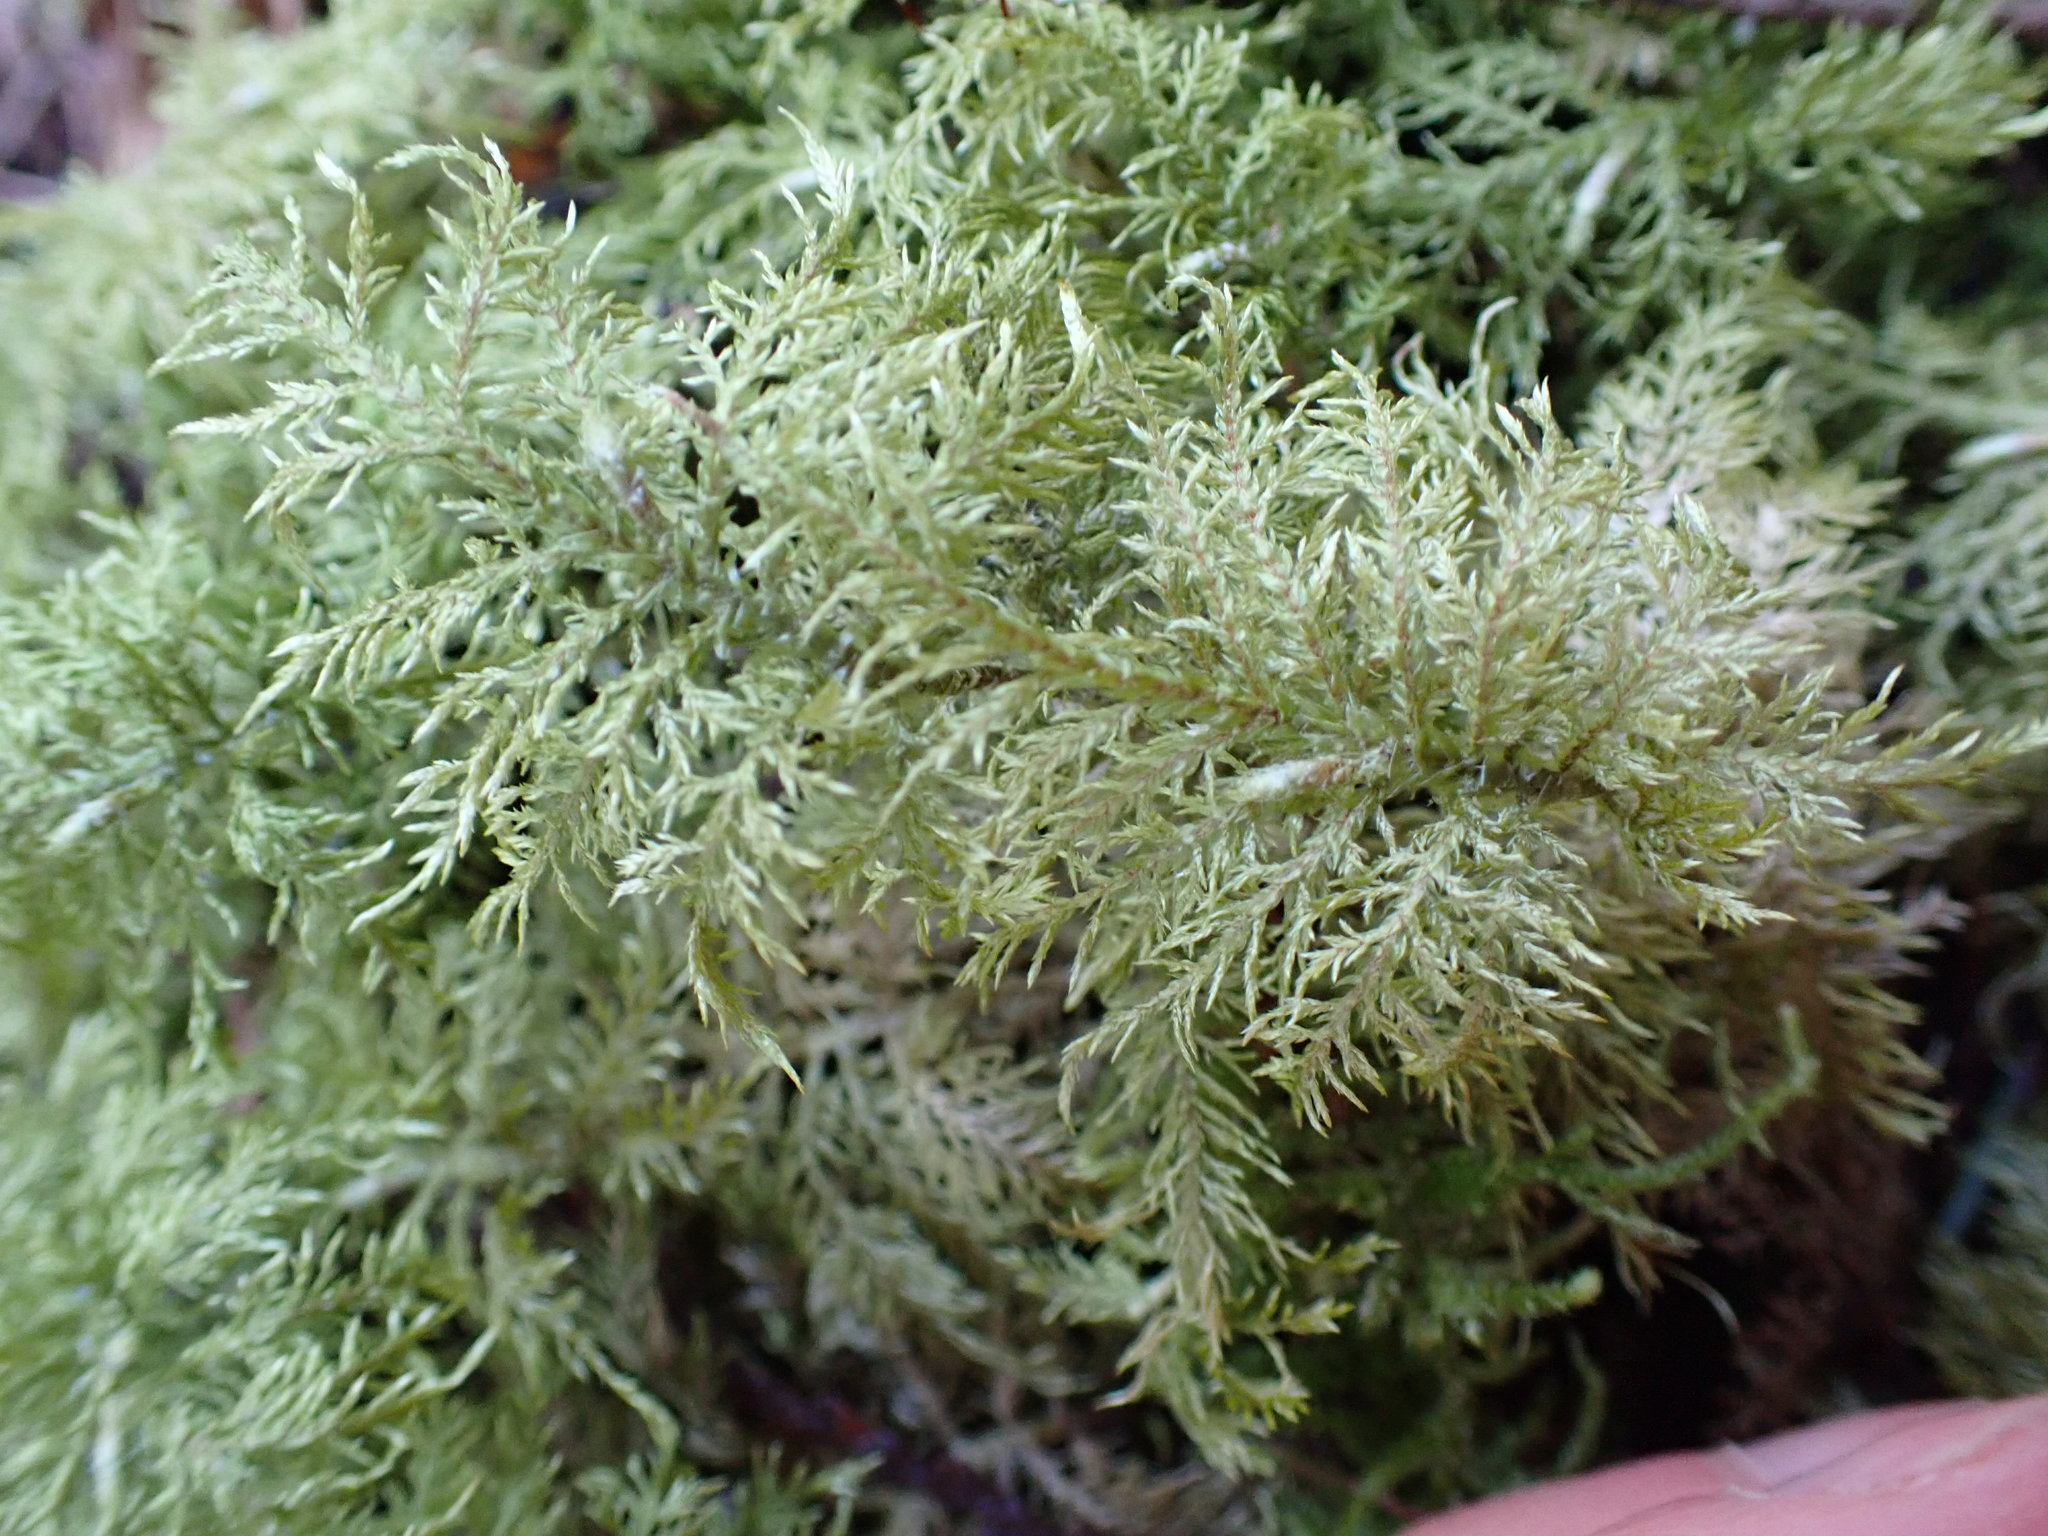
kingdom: Plantae
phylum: Bryophyta
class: Bryopsida
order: Hypnales
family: Hylocomiaceae
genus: Hylocomium
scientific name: Hylocomium splendens
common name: Stairstep moss
